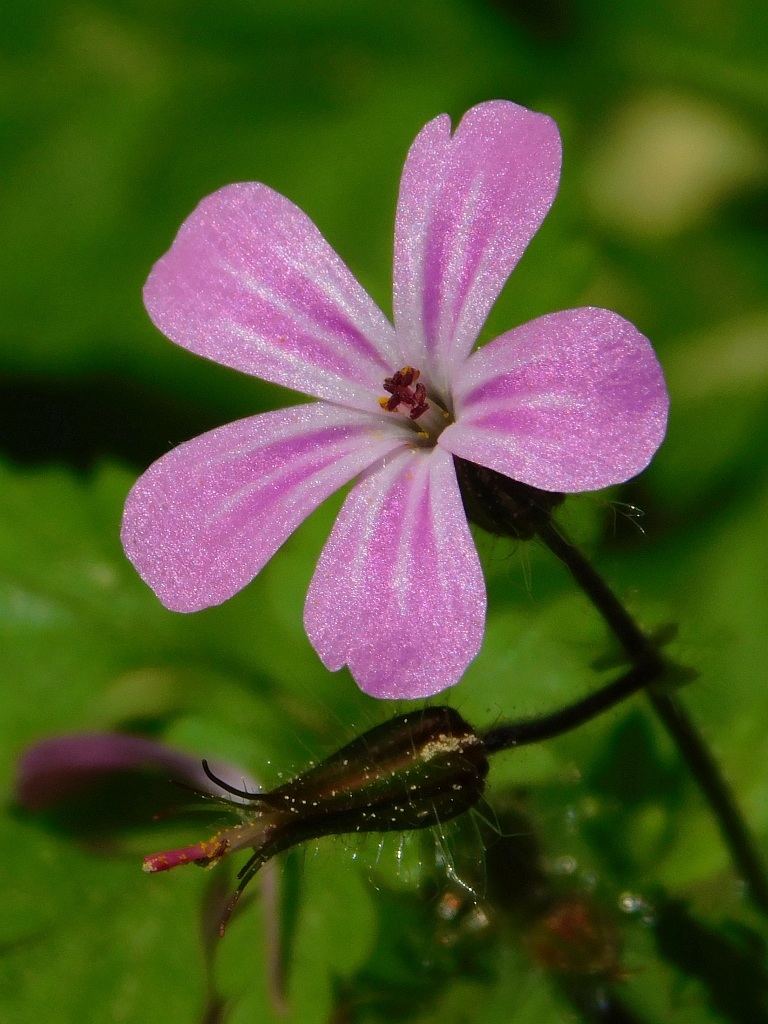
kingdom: Plantae
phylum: Tracheophyta
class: Magnoliopsida
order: Geraniales
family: Geraniaceae
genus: Geranium
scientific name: Geranium robertianum
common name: Herb-robert
